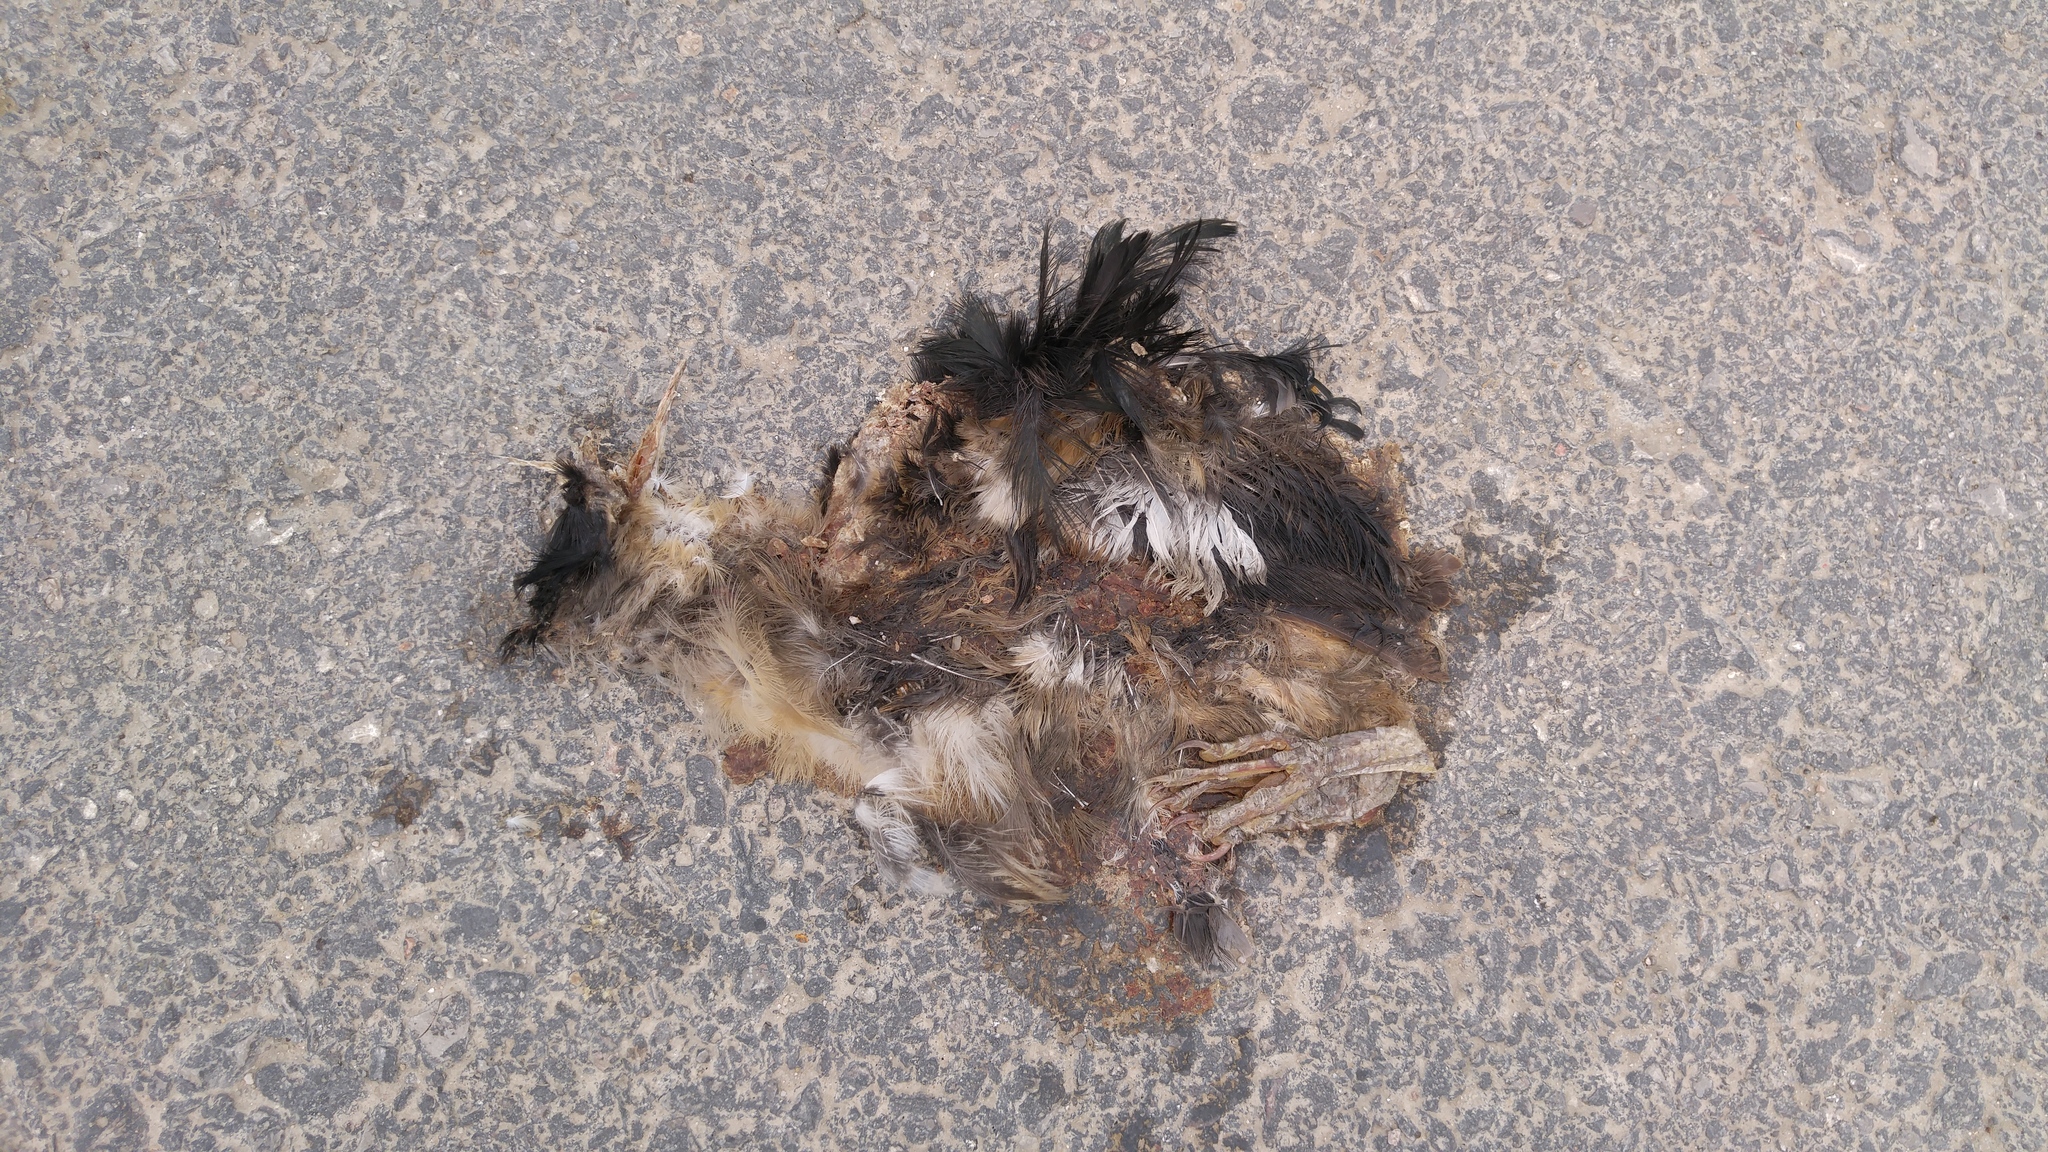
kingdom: Animalia
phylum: Chordata
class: Aves
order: Pelecaniformes
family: Ardeidae
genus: Ixobrychus
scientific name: Ixobrychus minutus
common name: Little bittern
